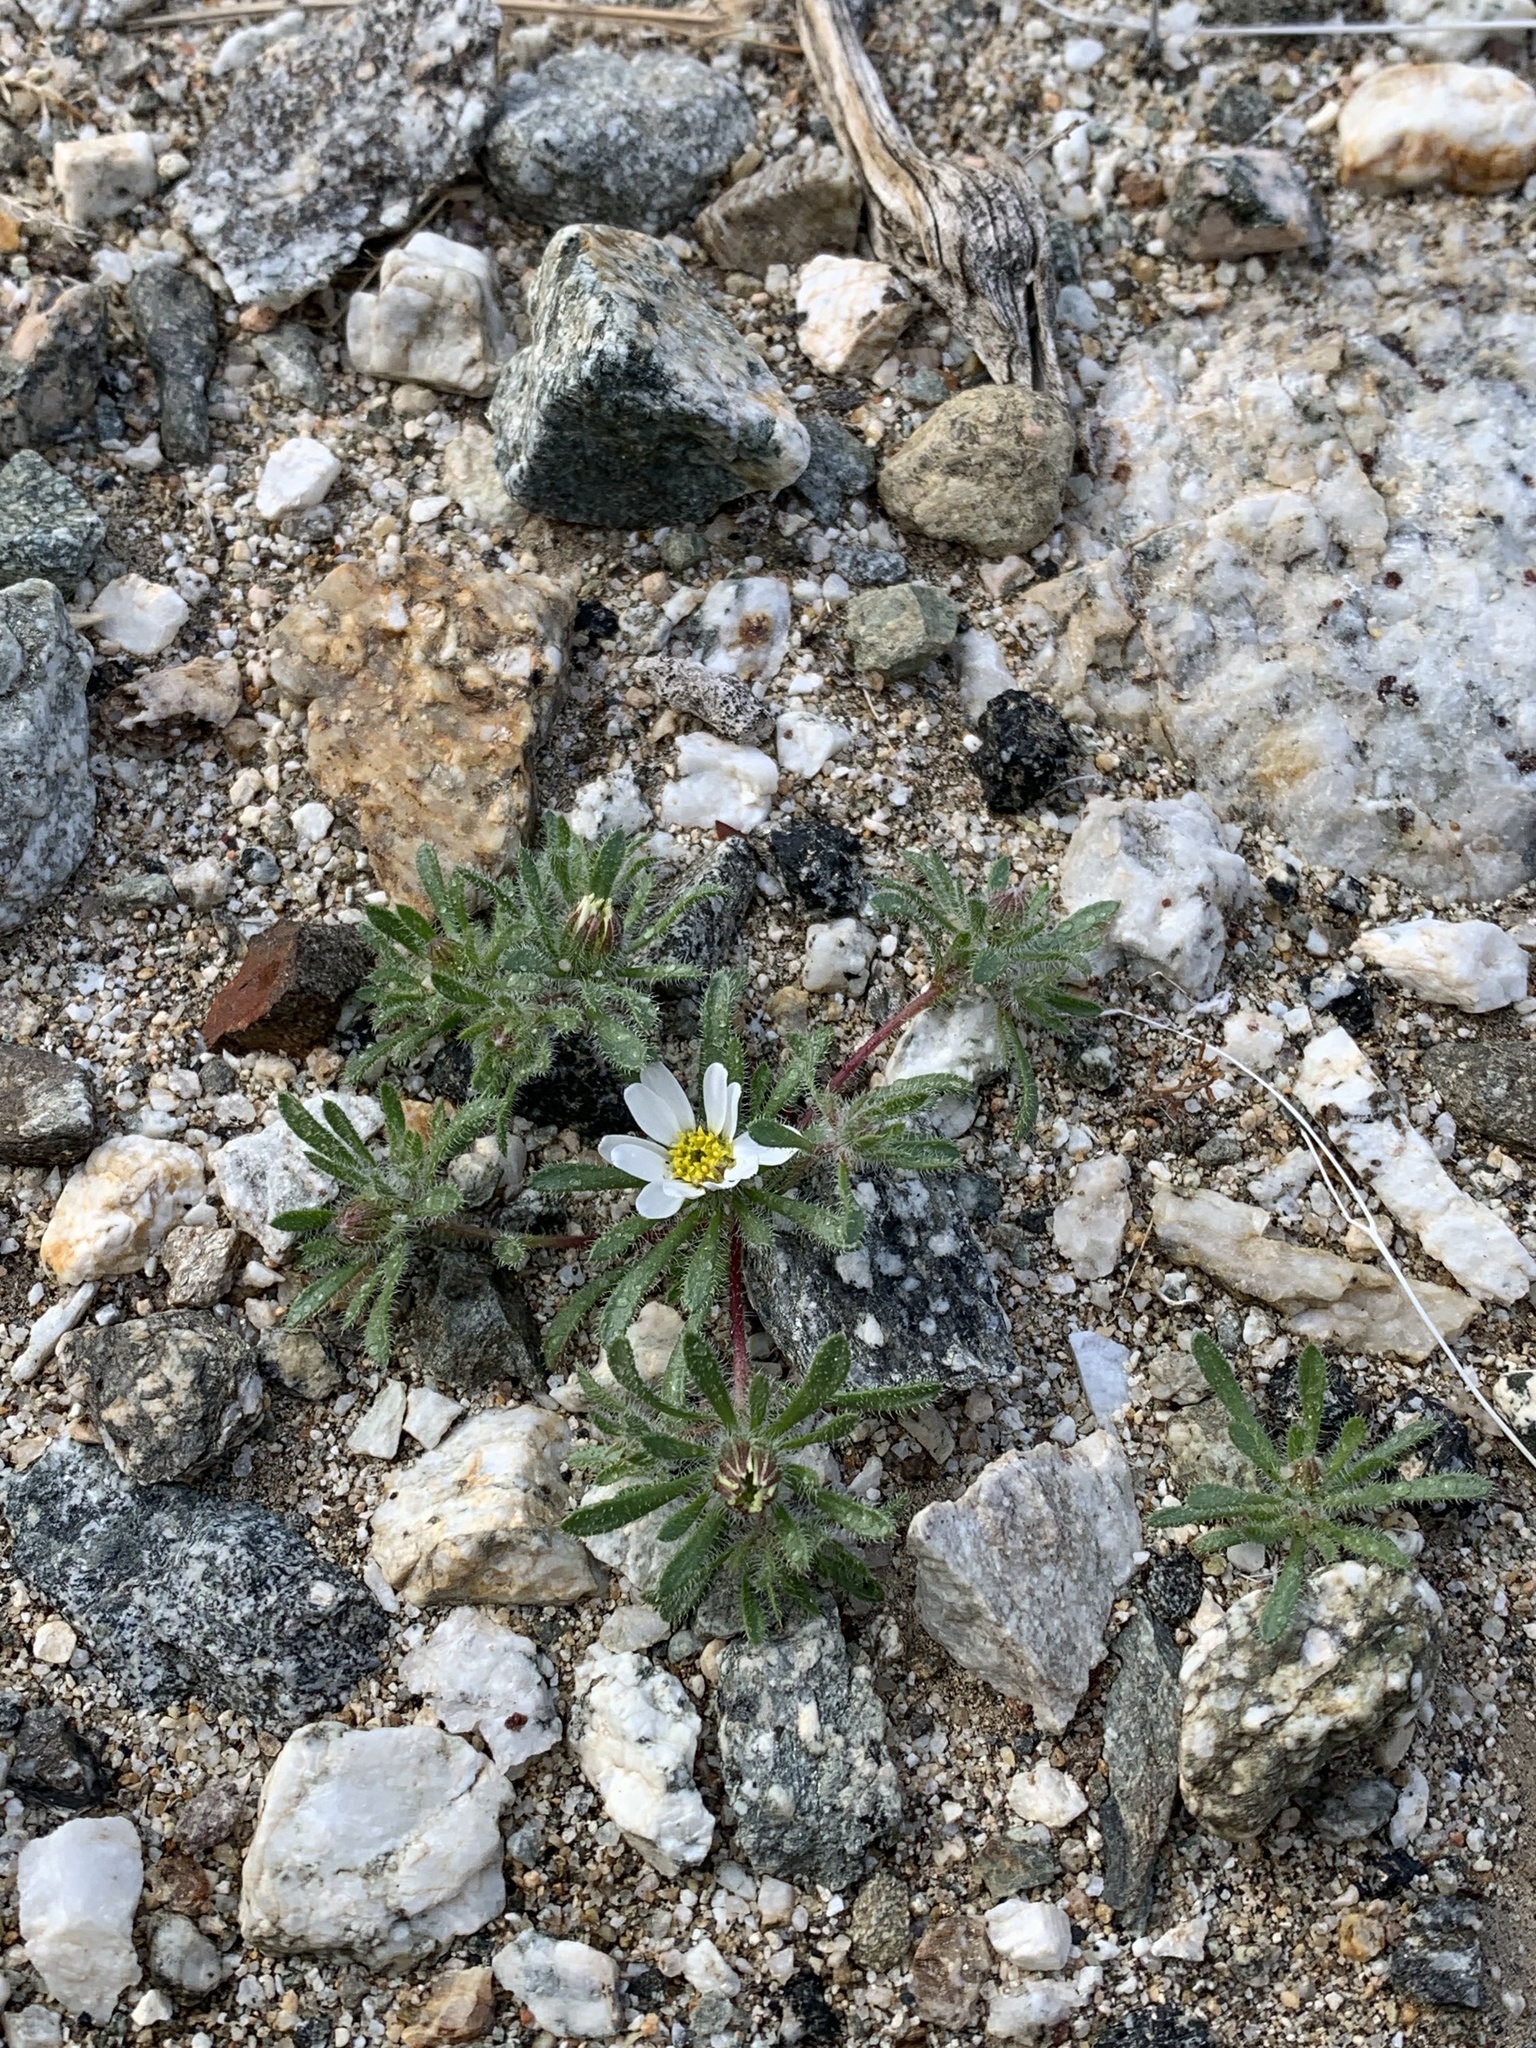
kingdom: Plantae
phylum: Tracheophyta
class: Magnoliopsida
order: Asterales
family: Asteraceae
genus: Monoptilon
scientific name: Monoptilon bellioides
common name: Bristly desertstar
